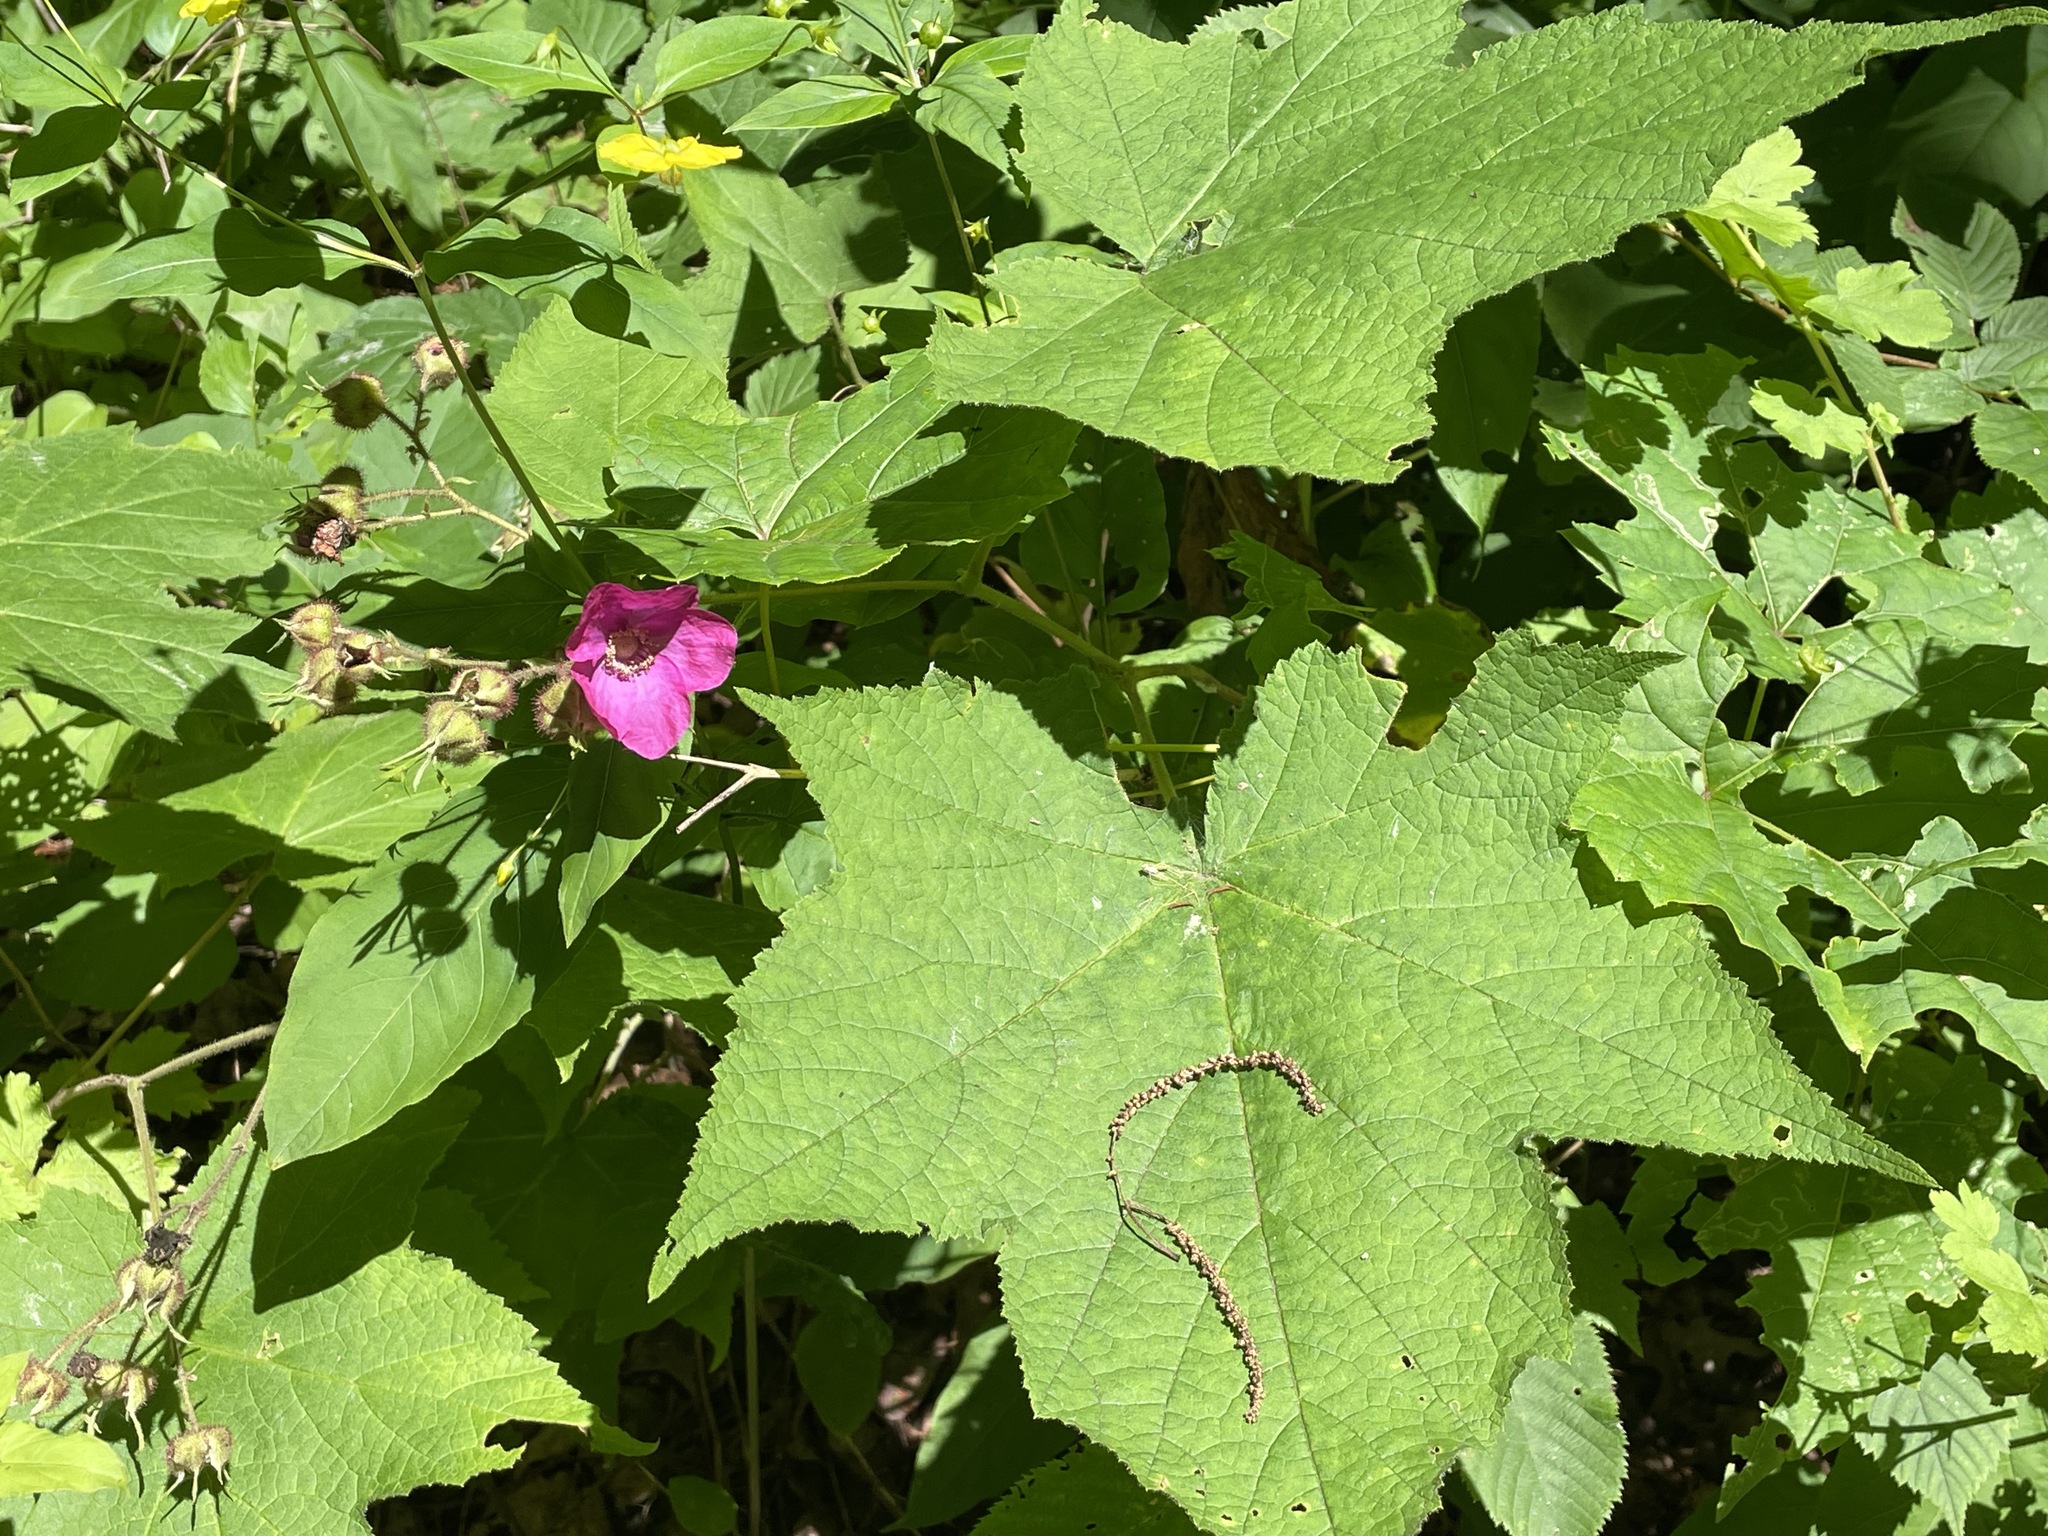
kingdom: Plantae
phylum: Tracheophyta
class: Magnoliopsida
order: Rosales
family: Rosaceae
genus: Rubus
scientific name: Rubus odoratus
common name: Purple-flowered raspberry
